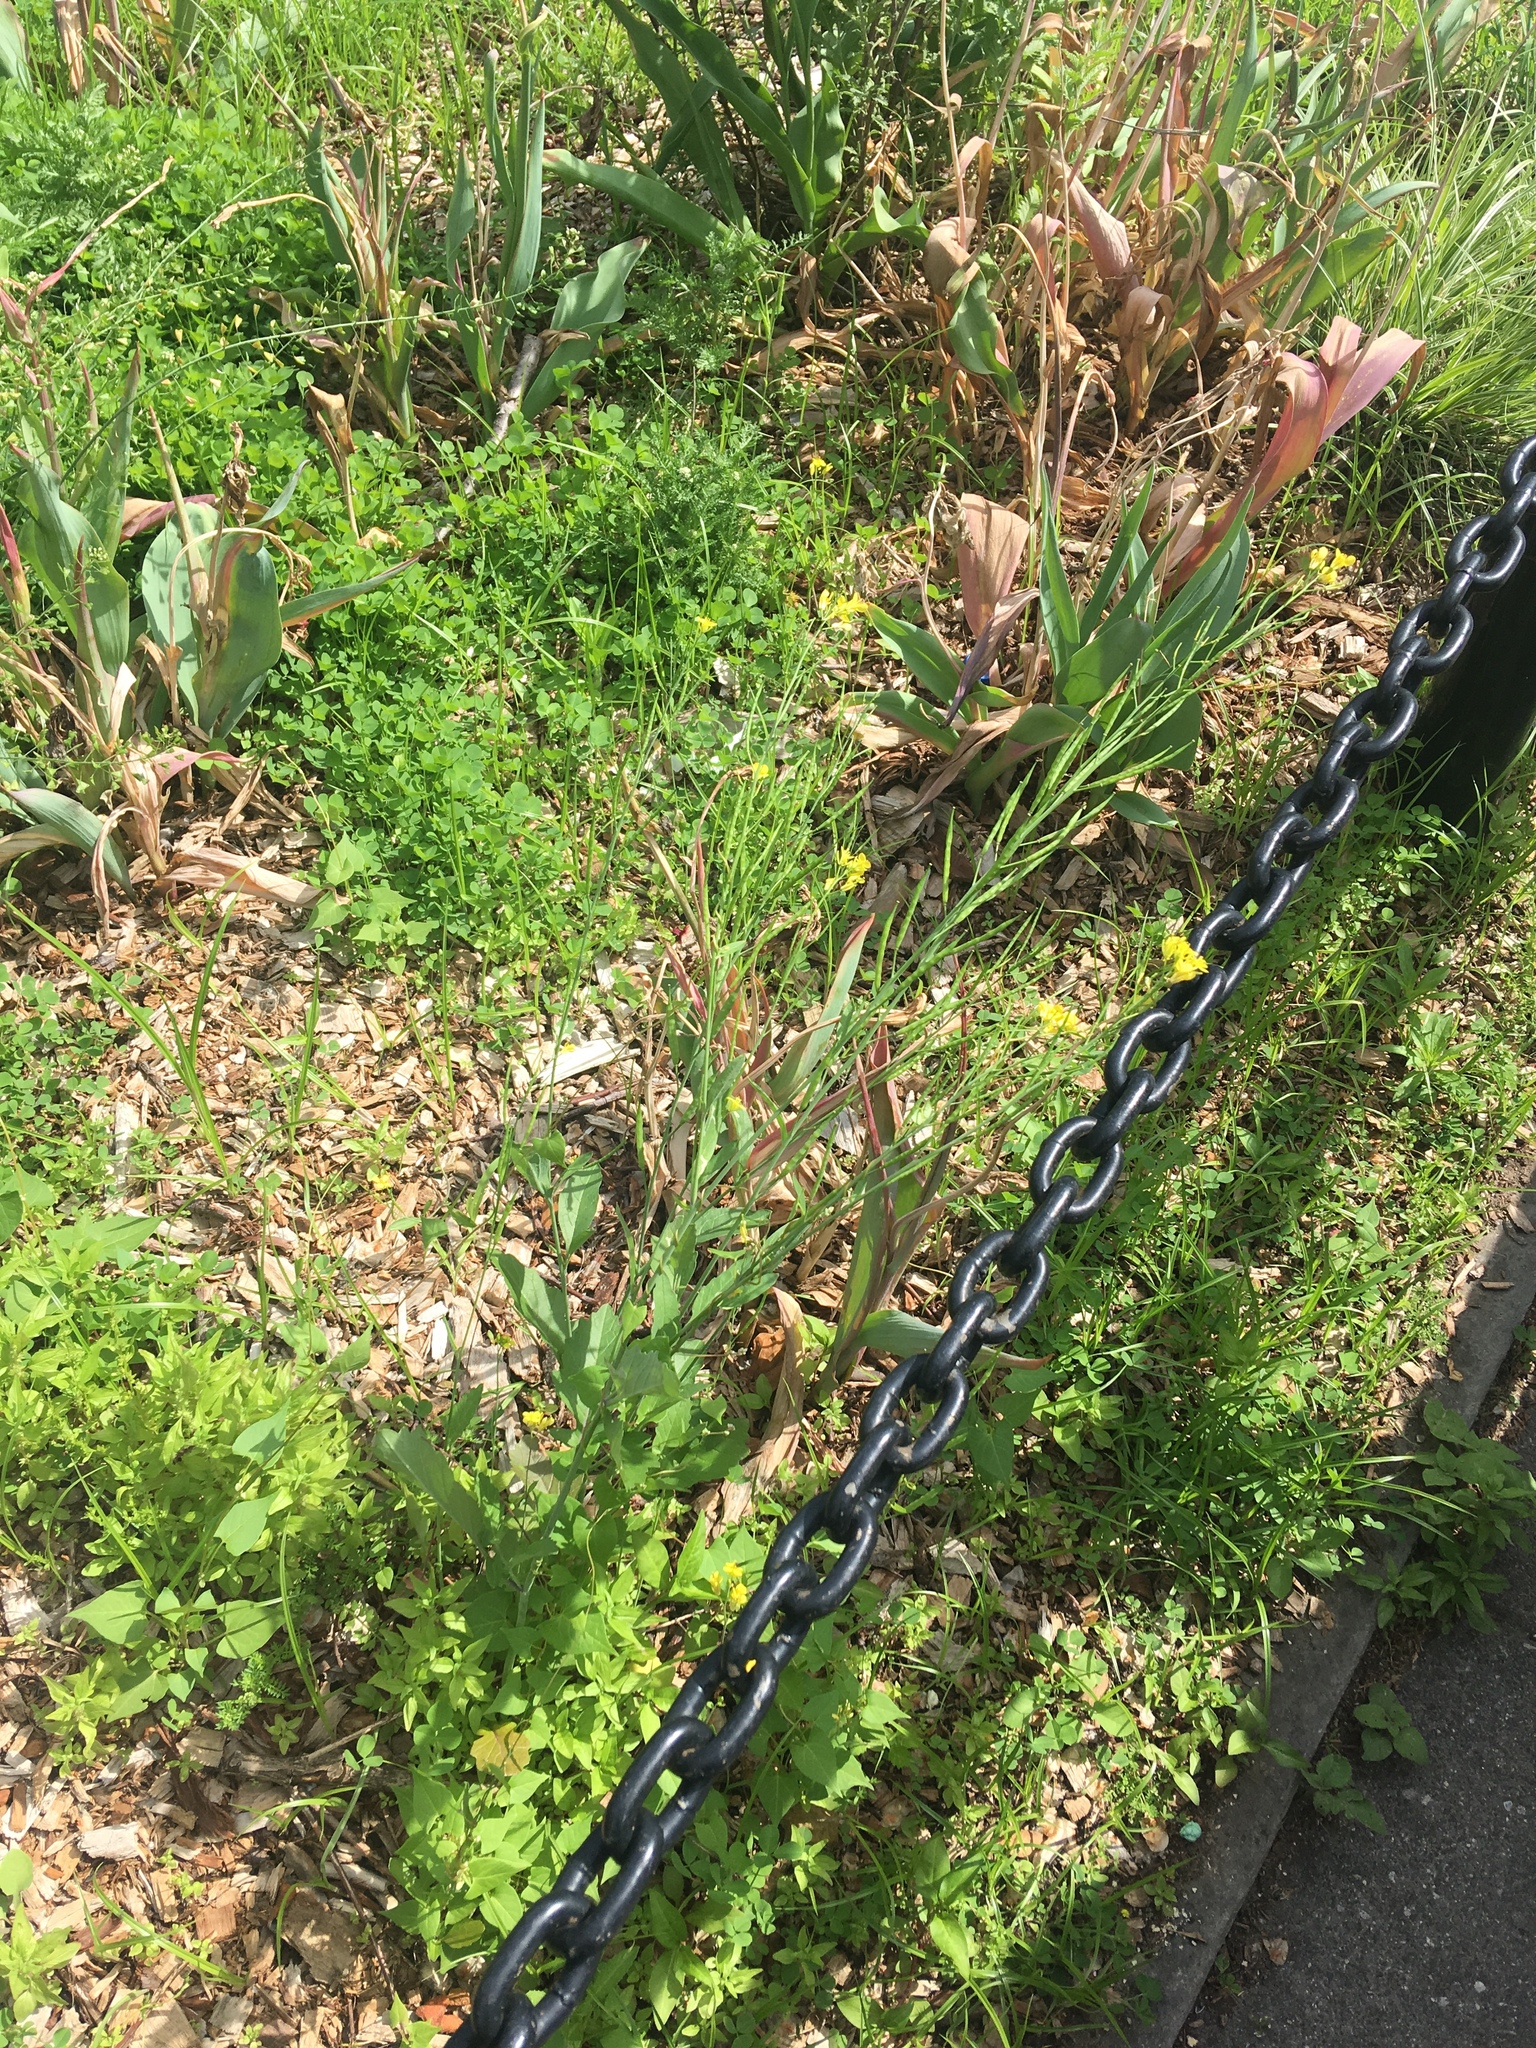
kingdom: Plantae
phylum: Tracheophyta
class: Magnoliopsida
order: Brassicales
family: Brassicaceae
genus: Brassica
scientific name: Brassica juncea
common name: Brown mustard
